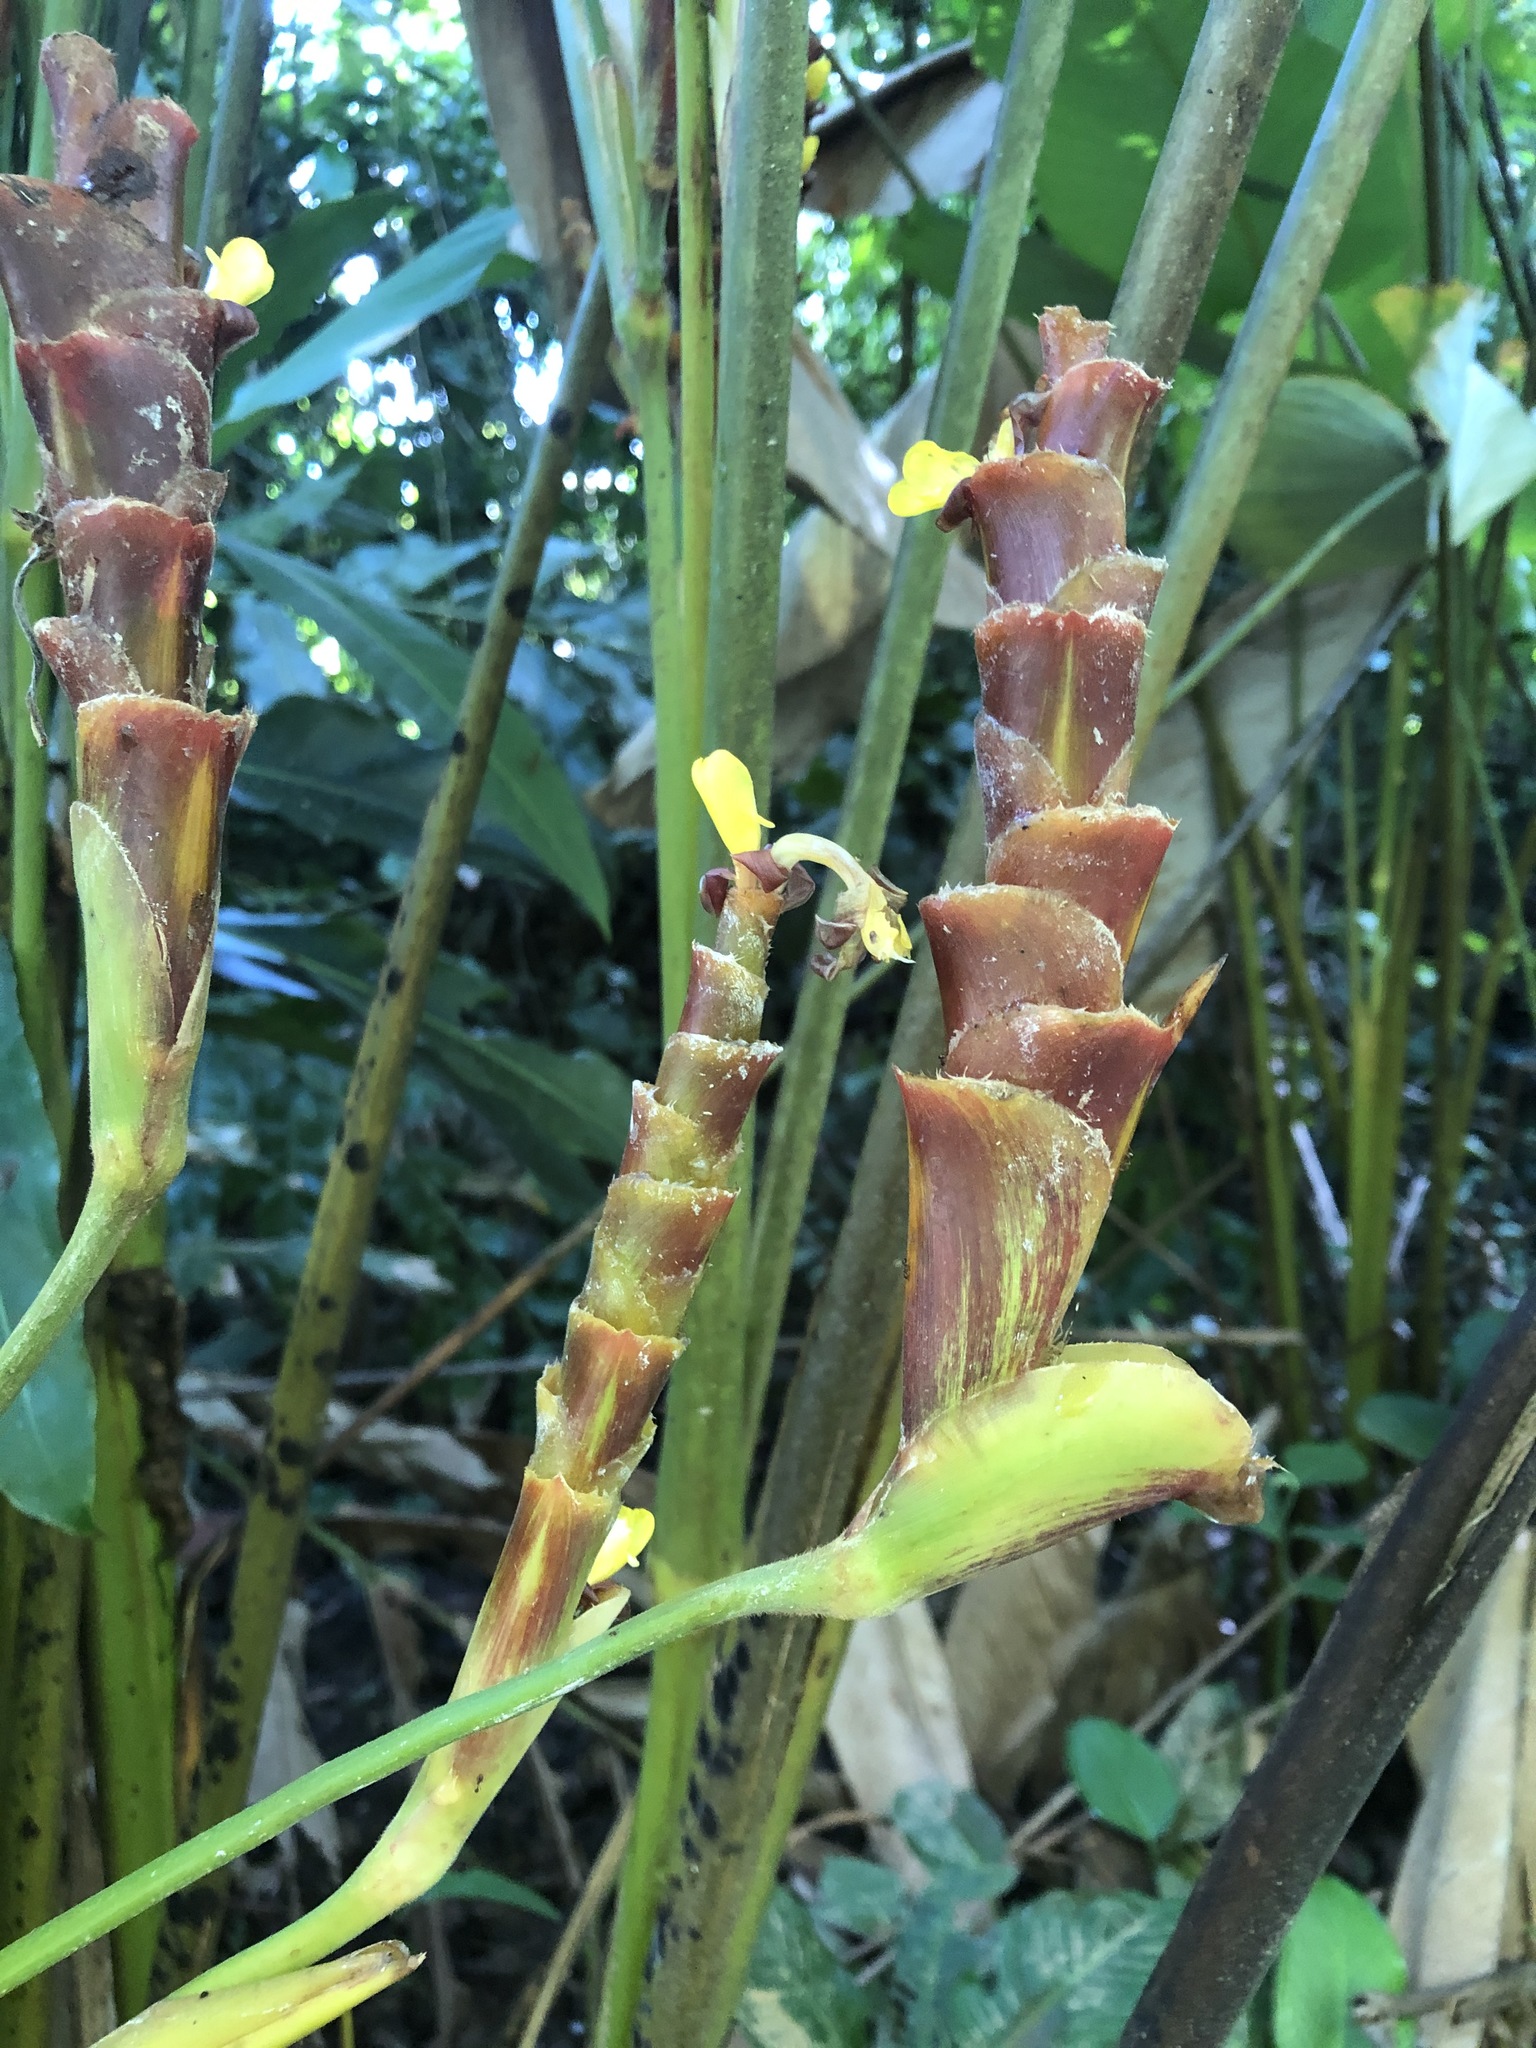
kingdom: Plantae
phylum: Tracheophyta
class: Liliopsida
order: Zingiberales
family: Marantaceae
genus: Calathea
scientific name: Calathea lutea
